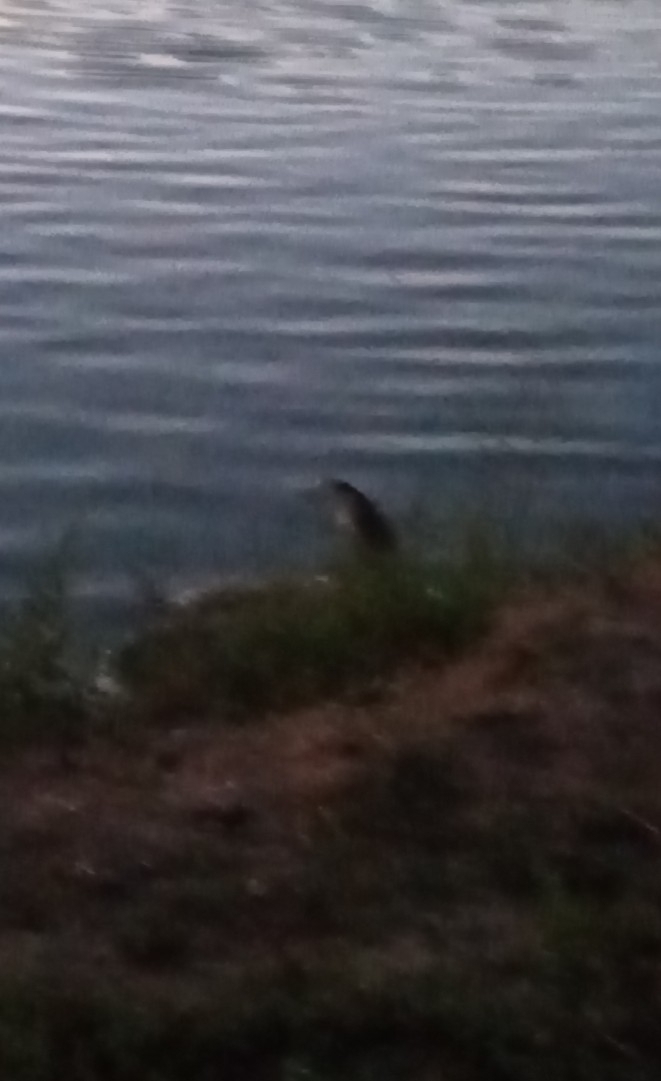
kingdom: Animalia
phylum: Chordata
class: Aves
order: Pelecaniformes
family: Ardeidae
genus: Nycticorax
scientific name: Nycticorax nycticorax
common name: Black-crowned night heron
